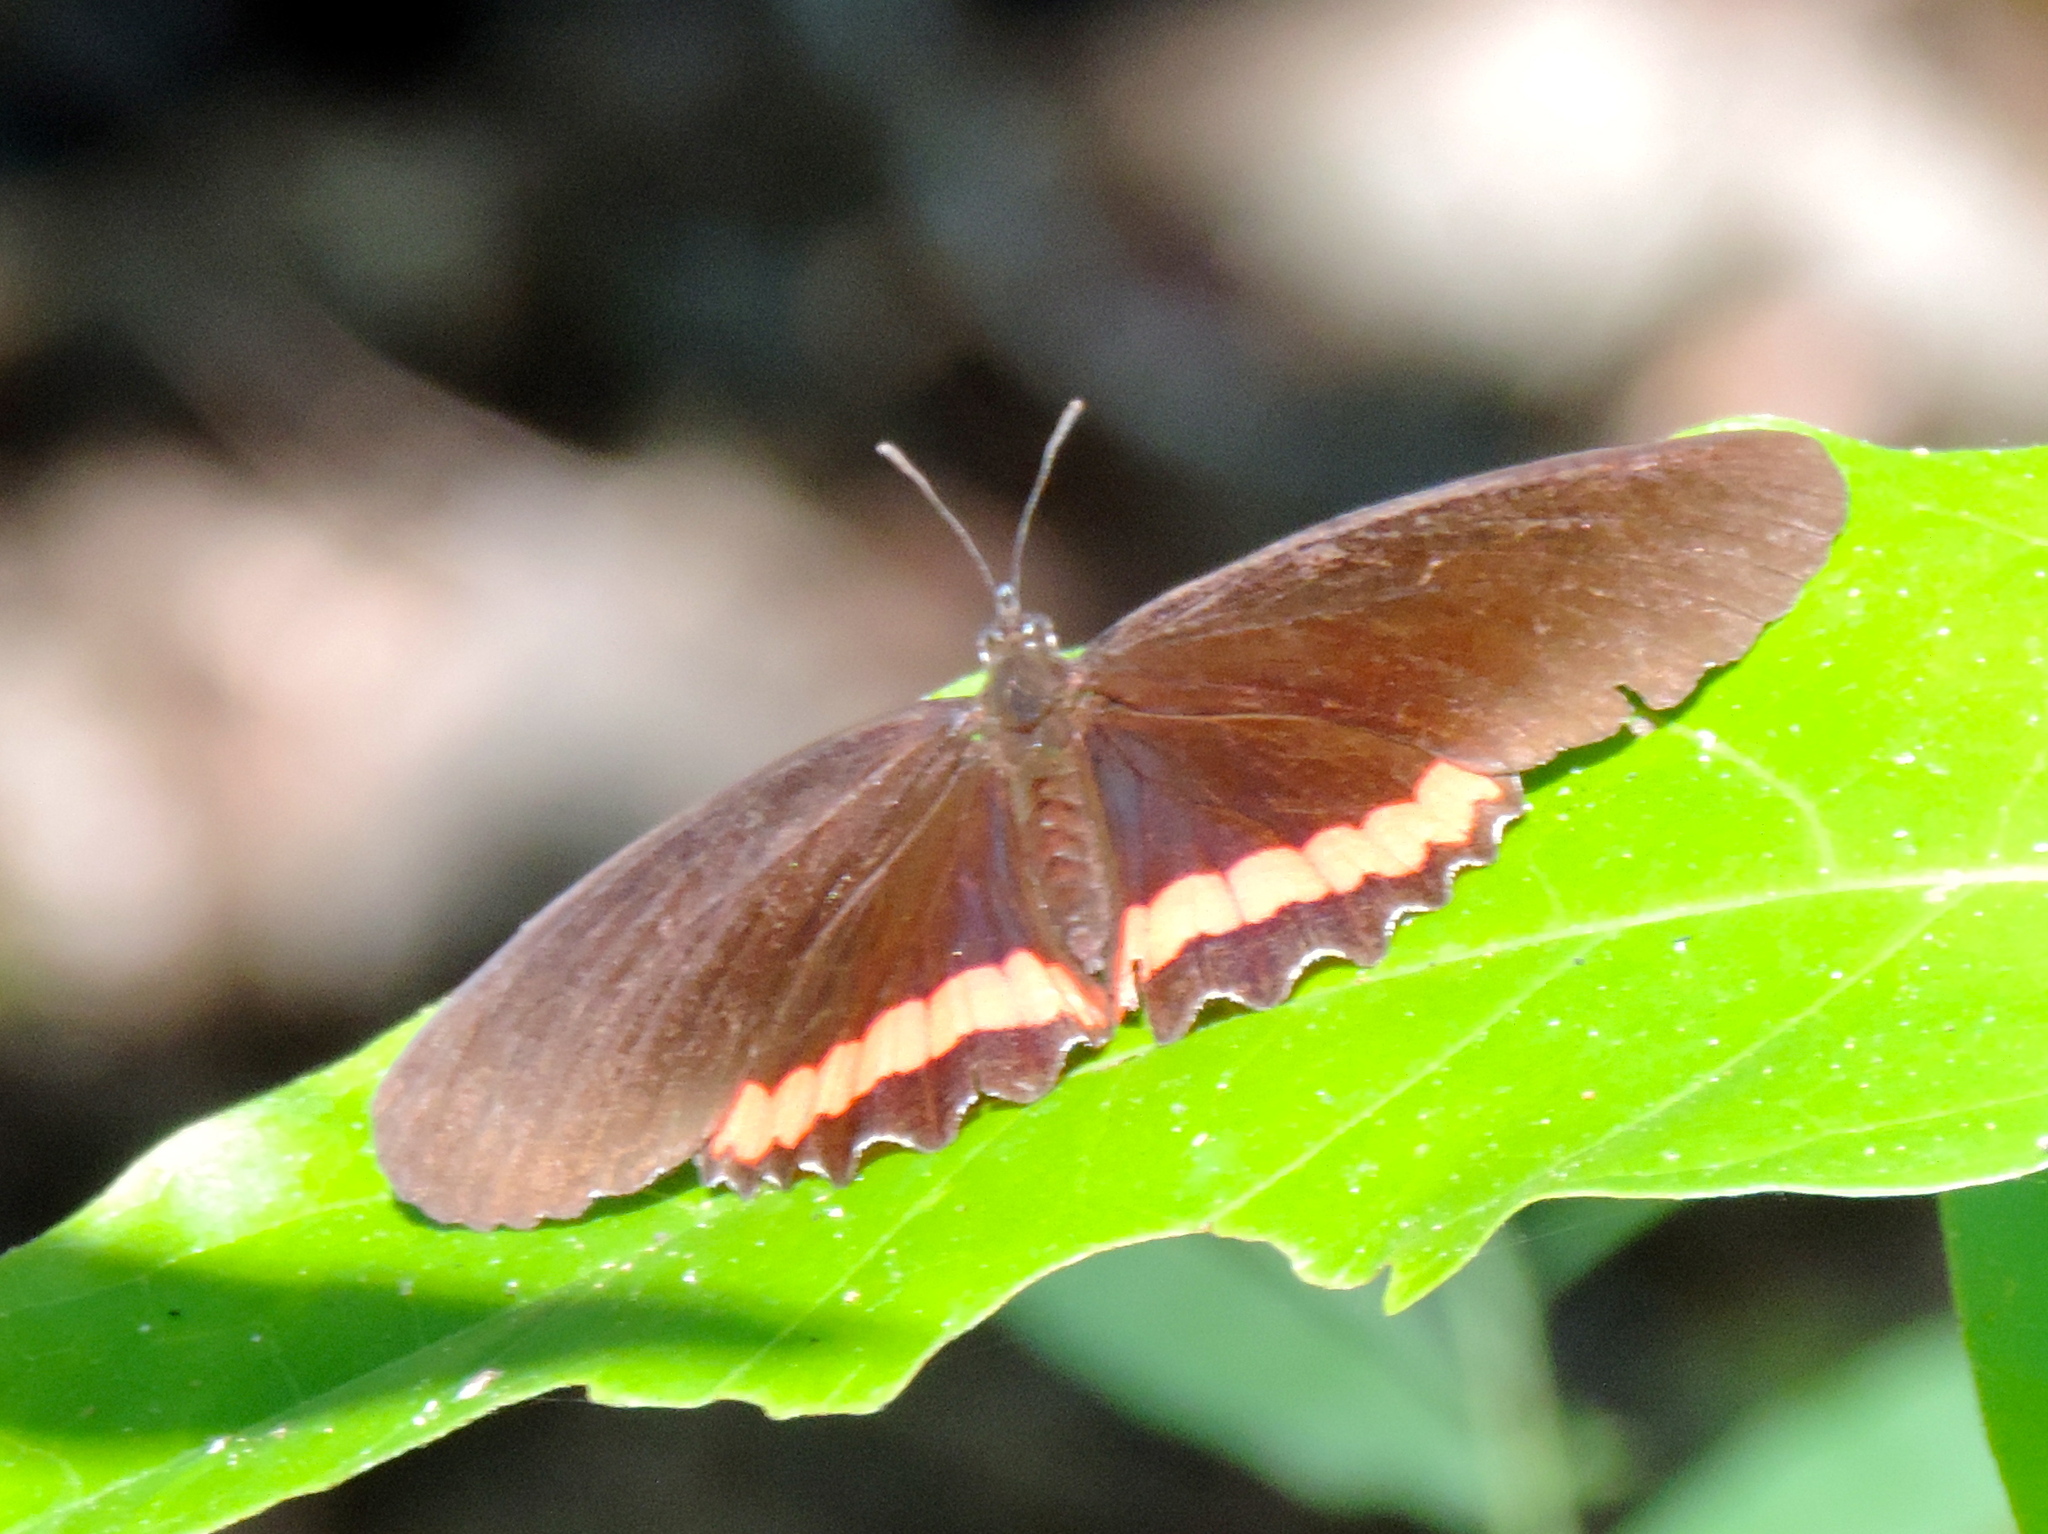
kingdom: Animalia
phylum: Arthropoda
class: Insecta
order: Lepidoptera
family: Nymphalidae
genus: Biblis
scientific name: Biblis
